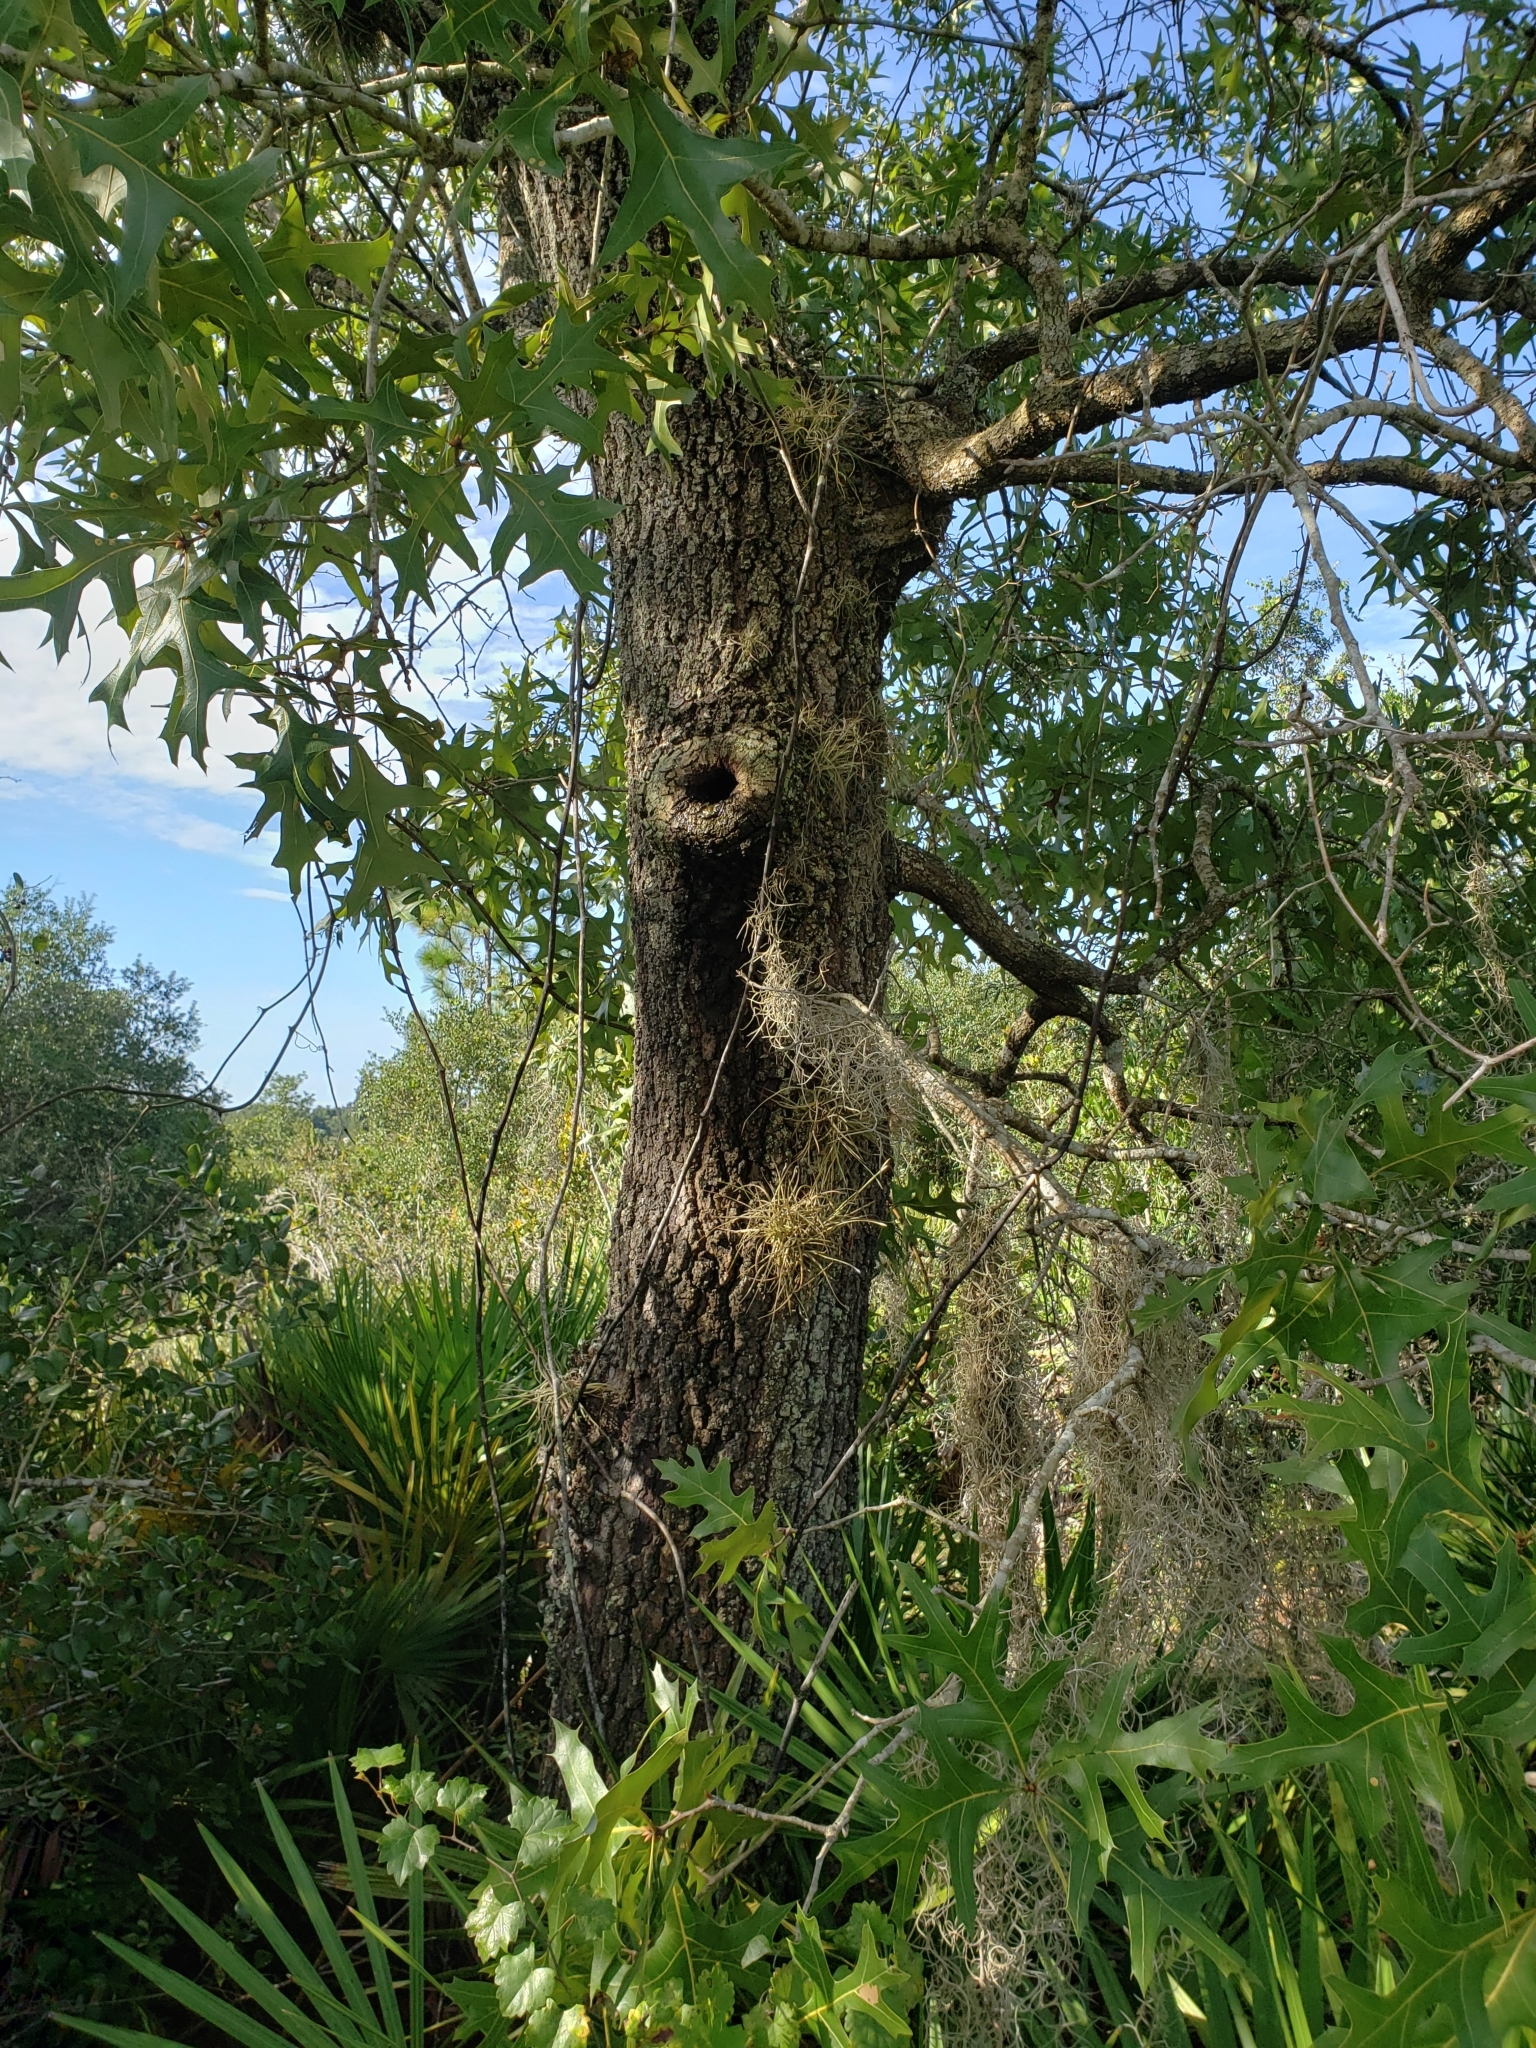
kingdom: Plantae
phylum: Tracheophyta
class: Magnoliopsida
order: Fagales
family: Fagaceae
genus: Quercus
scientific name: Quercus laevis
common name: Turkey oak
